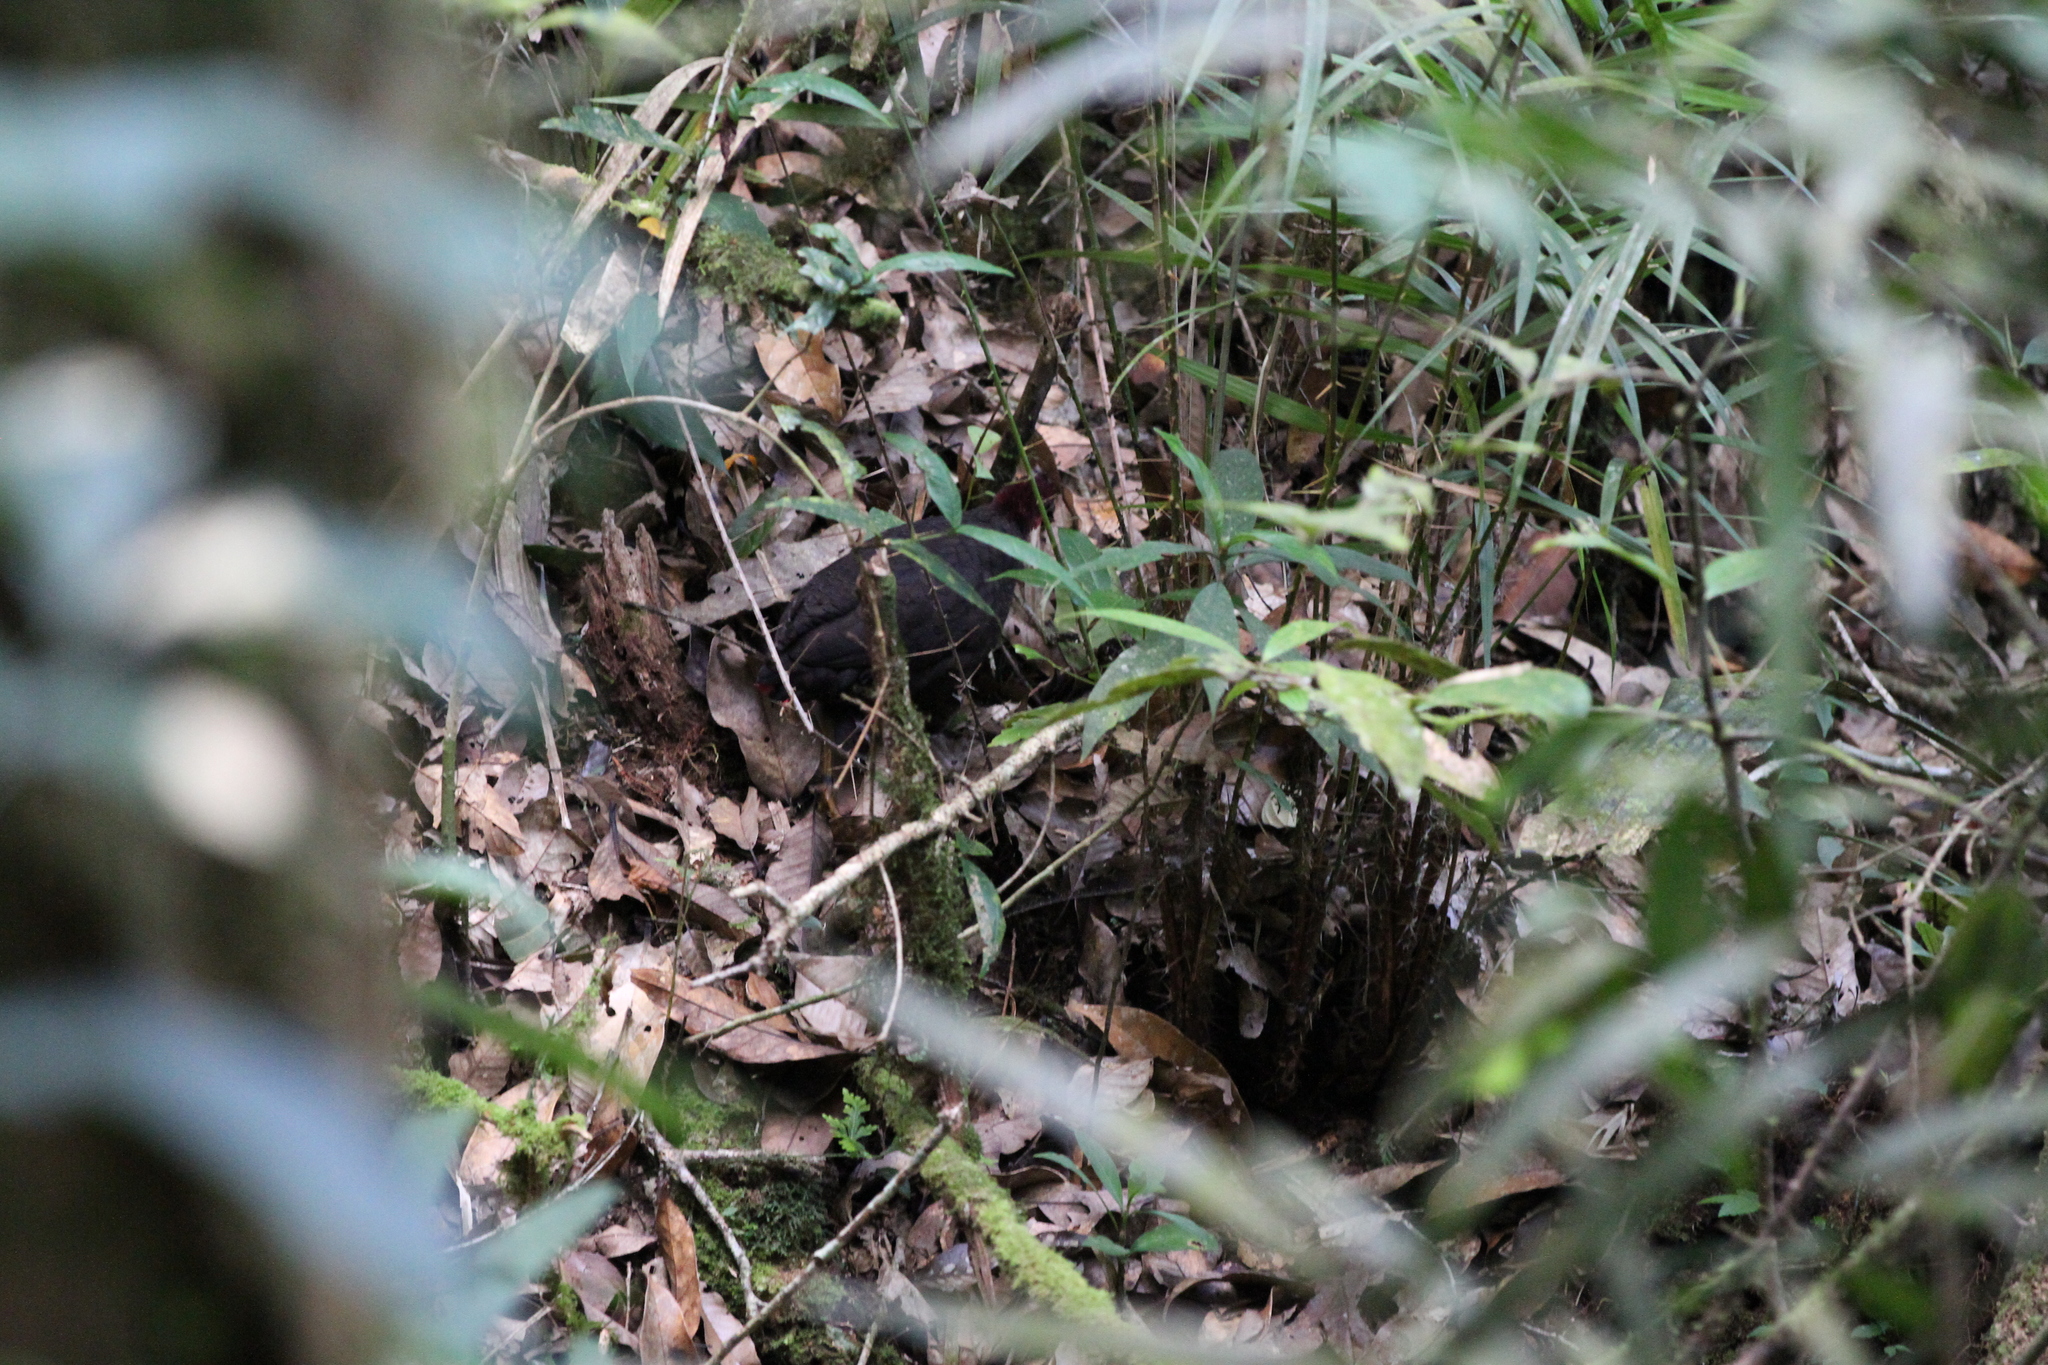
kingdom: Animalia
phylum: Chordata
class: Aves
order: Galliformes
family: Phasianidae
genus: Haematortyx
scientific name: Haematortyx sanguiniceps
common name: Crimson-headed partridge
